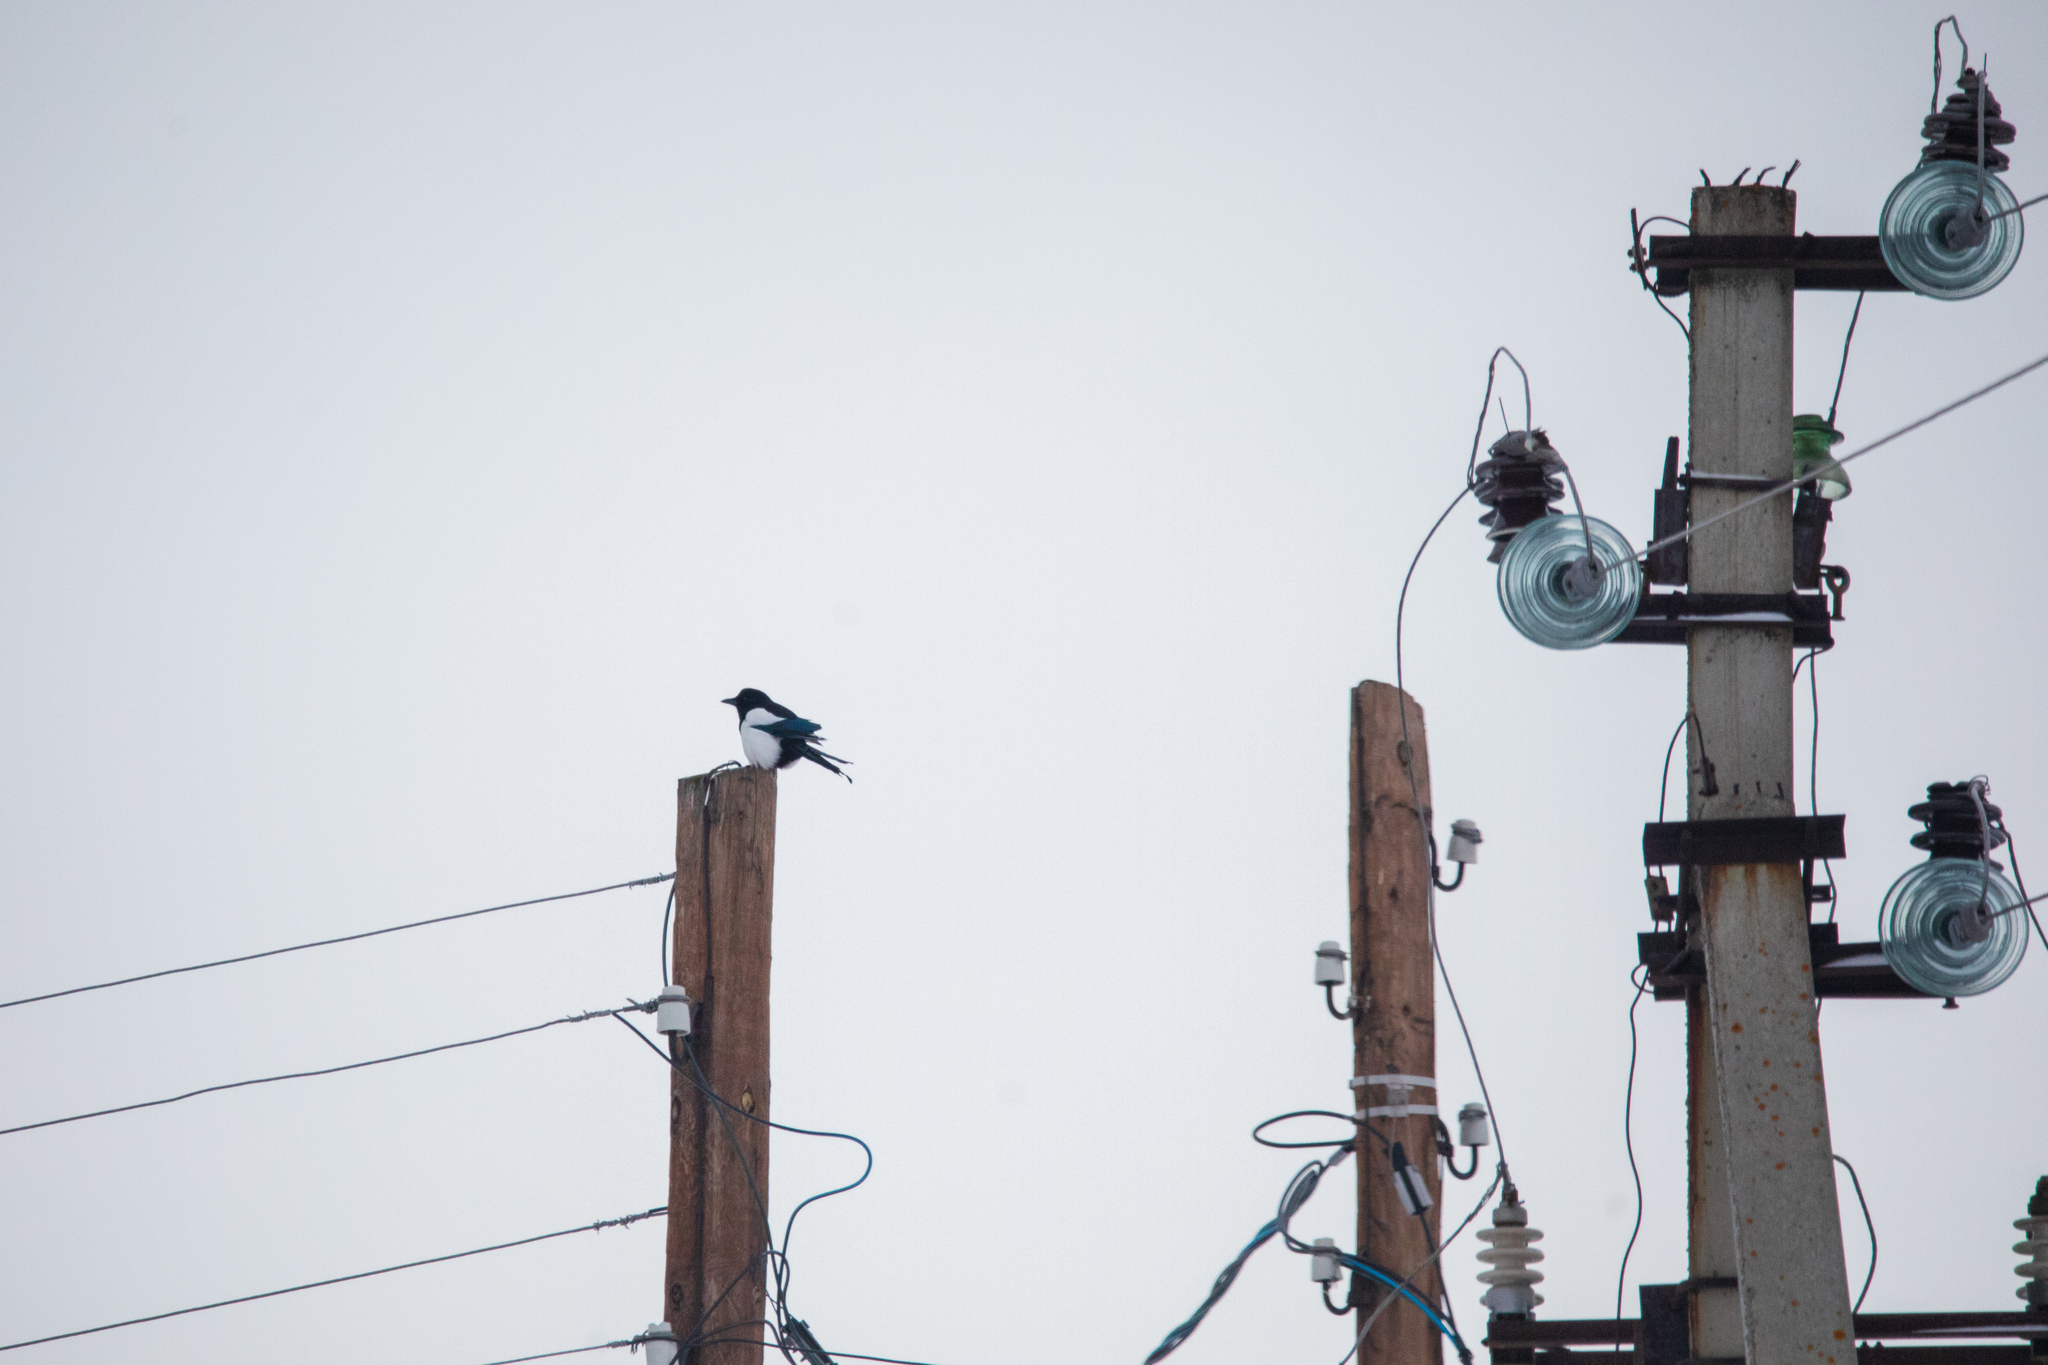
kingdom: Animalia
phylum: Chordata
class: Aves
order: Passeriformes
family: Corvidae
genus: Pica
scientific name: Pica pica
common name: Eurasian magpie
